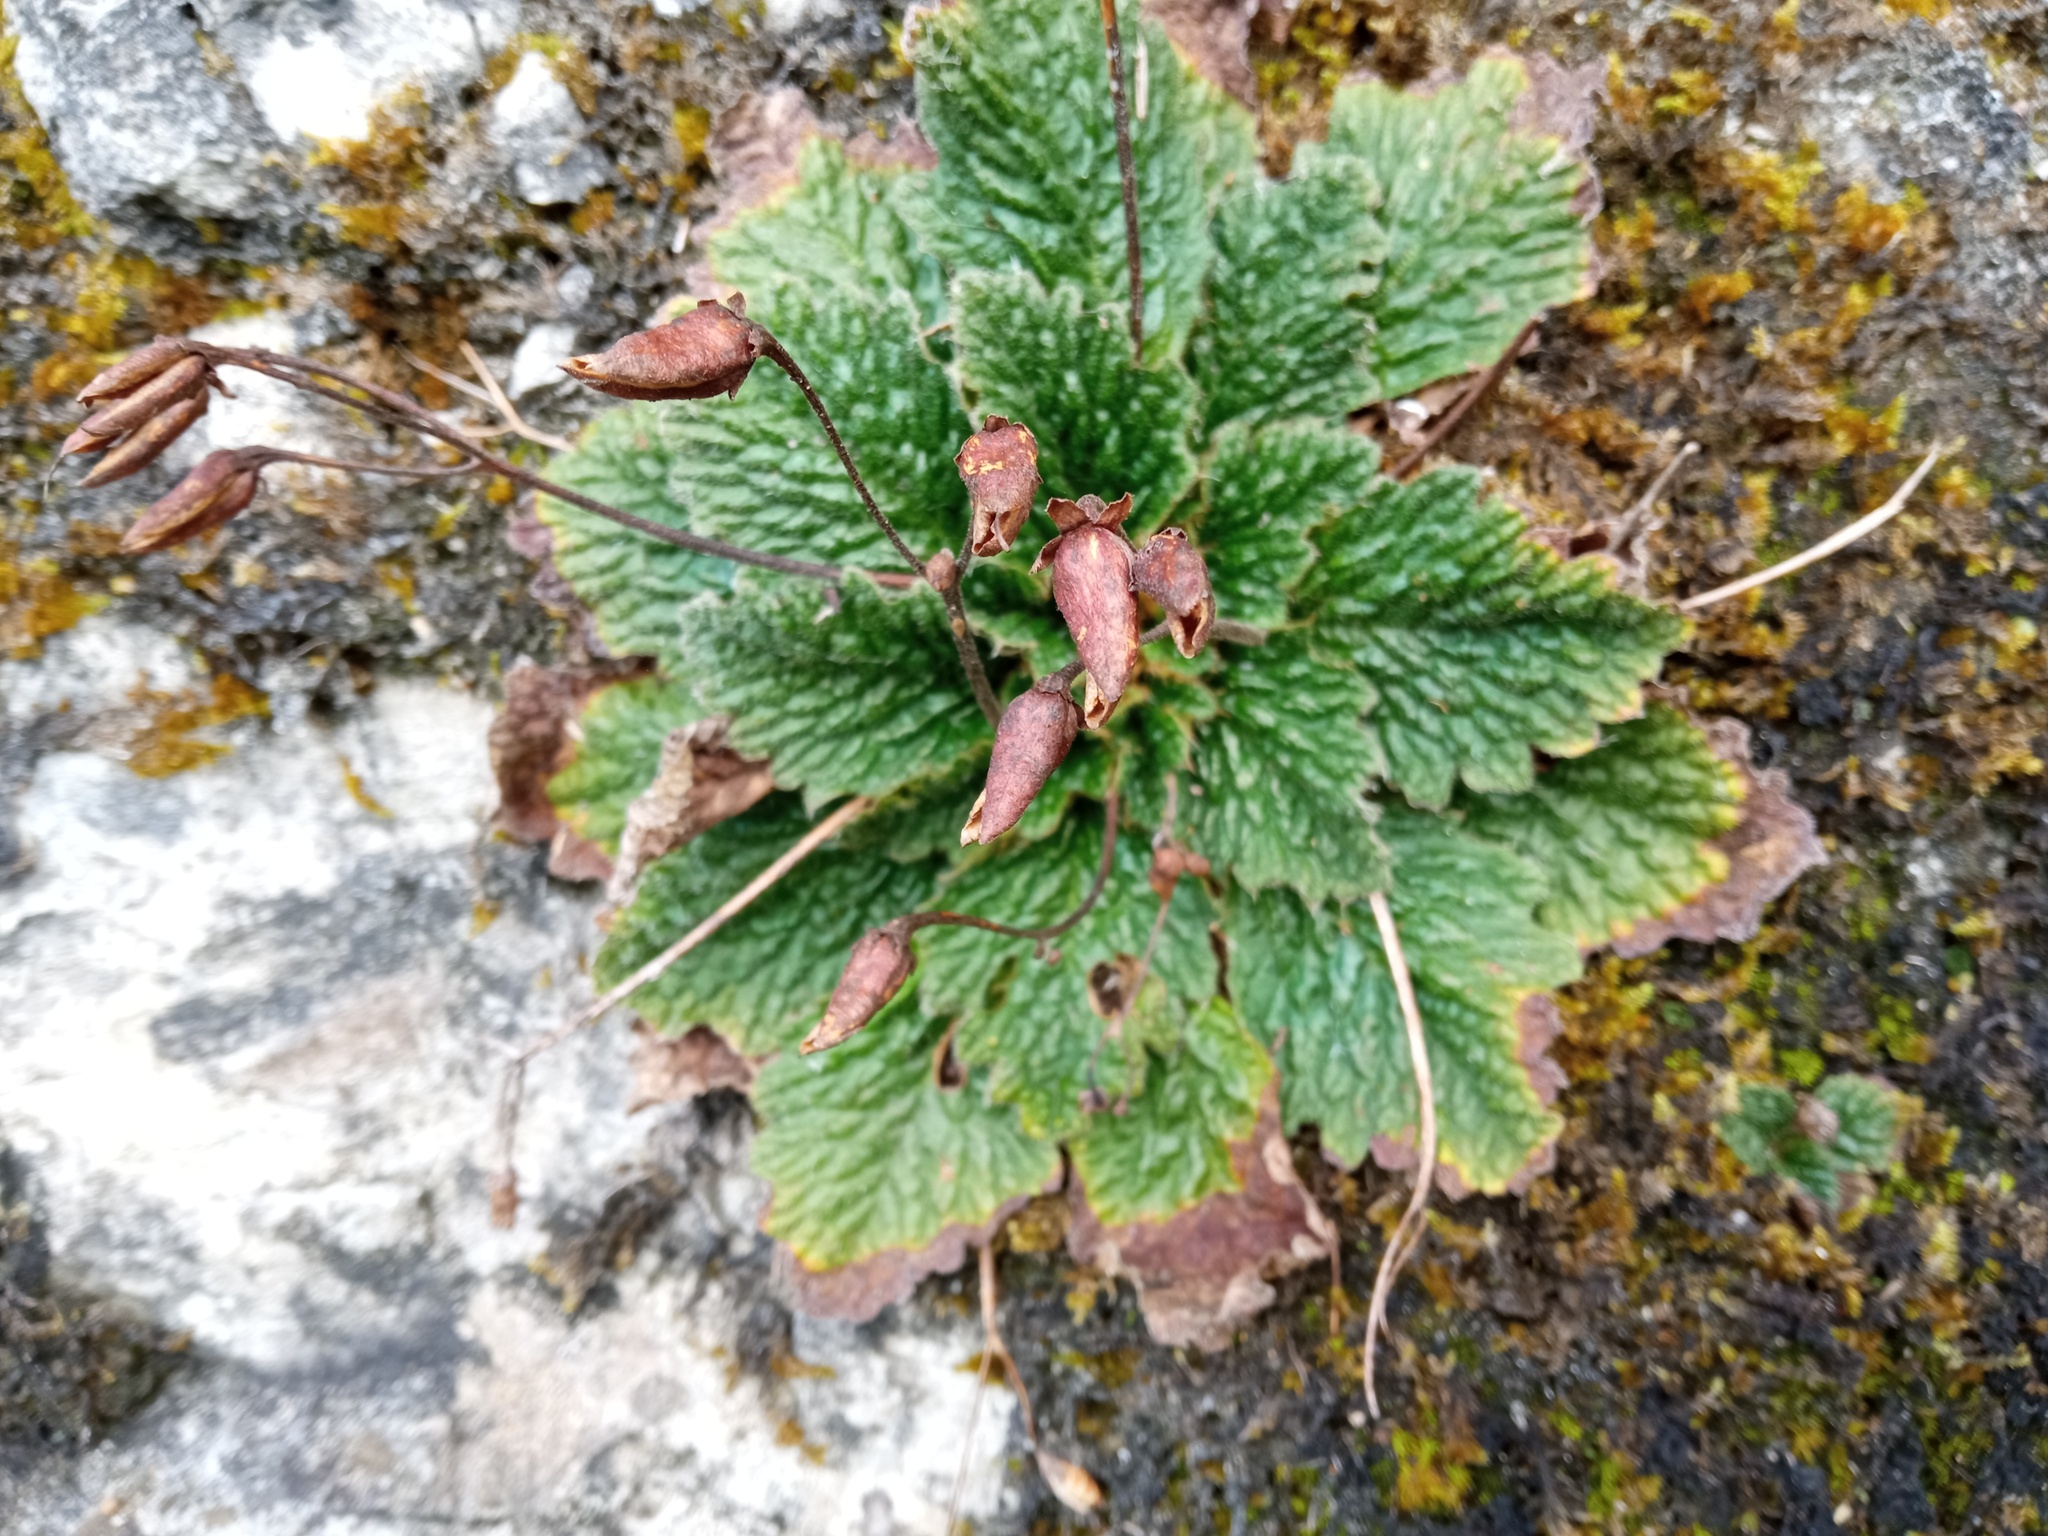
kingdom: Plantae
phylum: Tracheophyta
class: Magnoliopsida
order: Lamiales
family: Gesneriaceae
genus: Ramonda
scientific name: Ramonda myconi
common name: Pyrenean-violet
